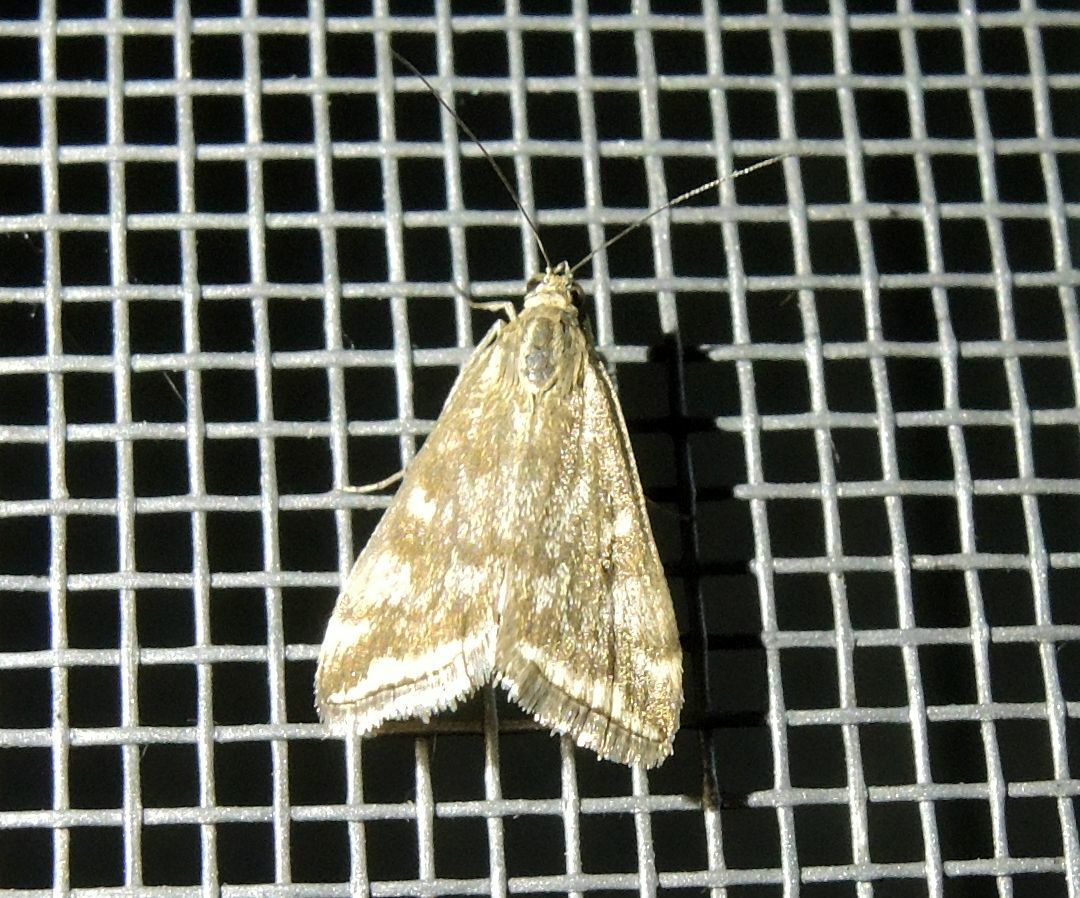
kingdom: Animalia
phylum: Arthropoda
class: Insecta
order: Lepidoptera
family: Crambidae
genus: Loxostege
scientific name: Loxostege sticticalis
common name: Crambid moth
